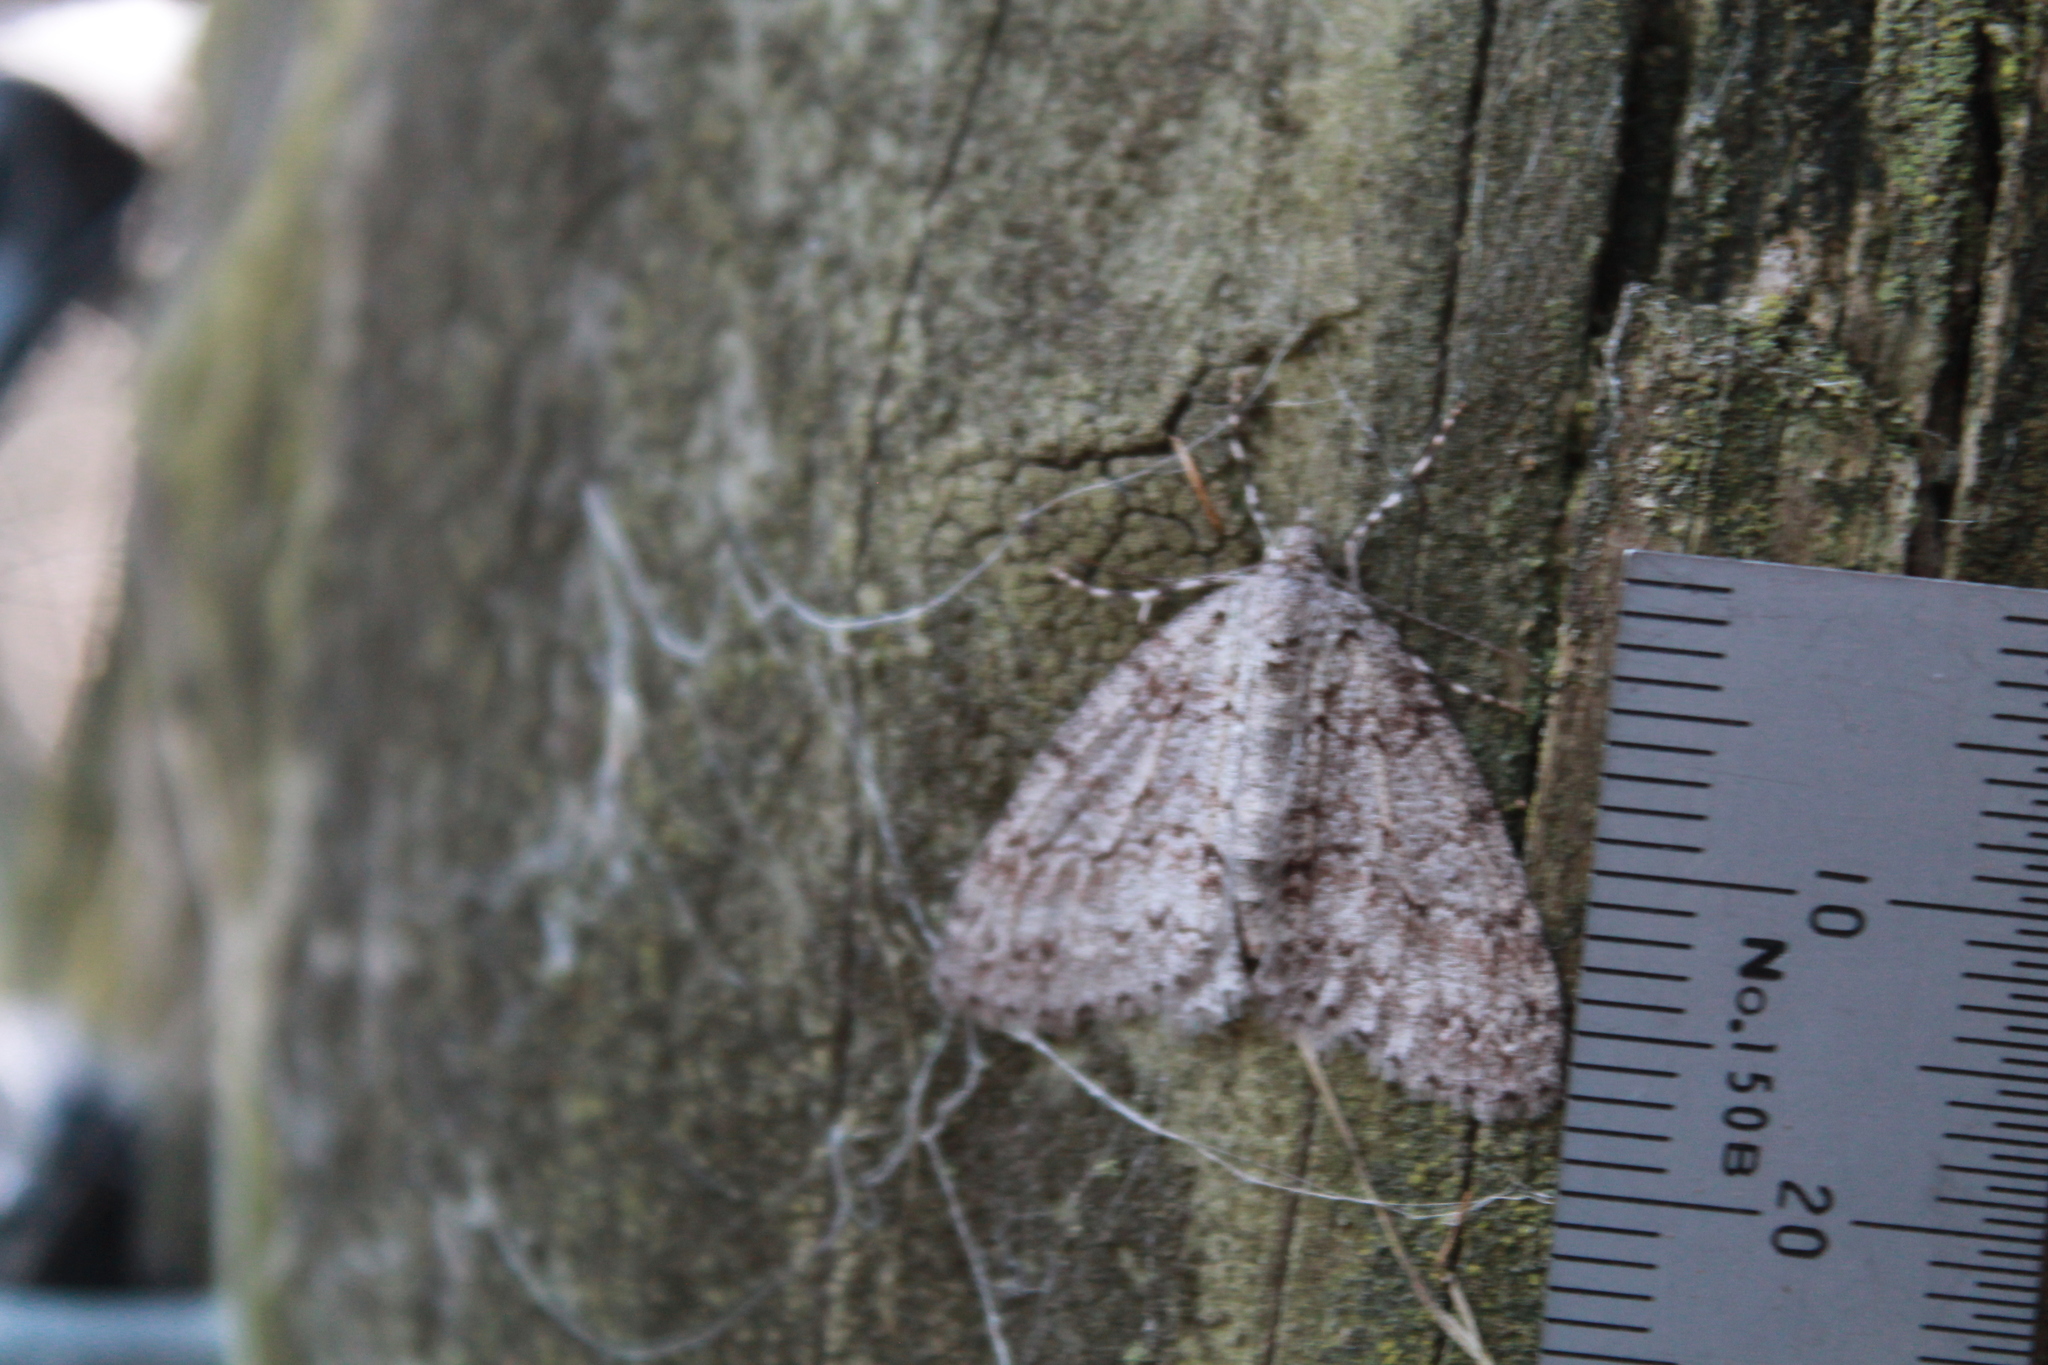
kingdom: Animalia
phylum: Arthropoda
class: Insecta
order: Lepidoptera
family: Geometridae
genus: Pseudocoremia
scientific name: Pseudocoremia fenerata
